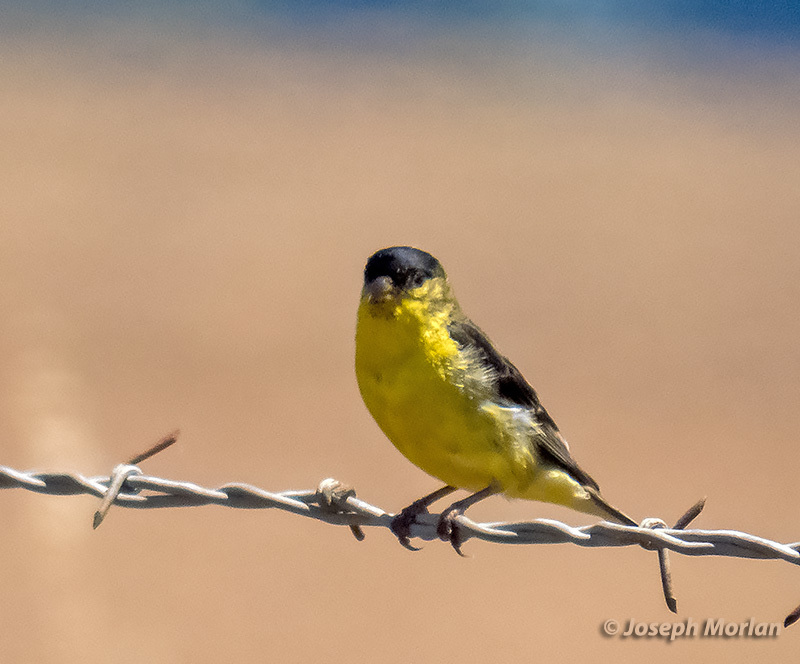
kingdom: Animalia
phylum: Chordata
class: Aves
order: Passeriformes
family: Fringillidae
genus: Spinus
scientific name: Spinus psaltria
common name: Lesser goldfinch
